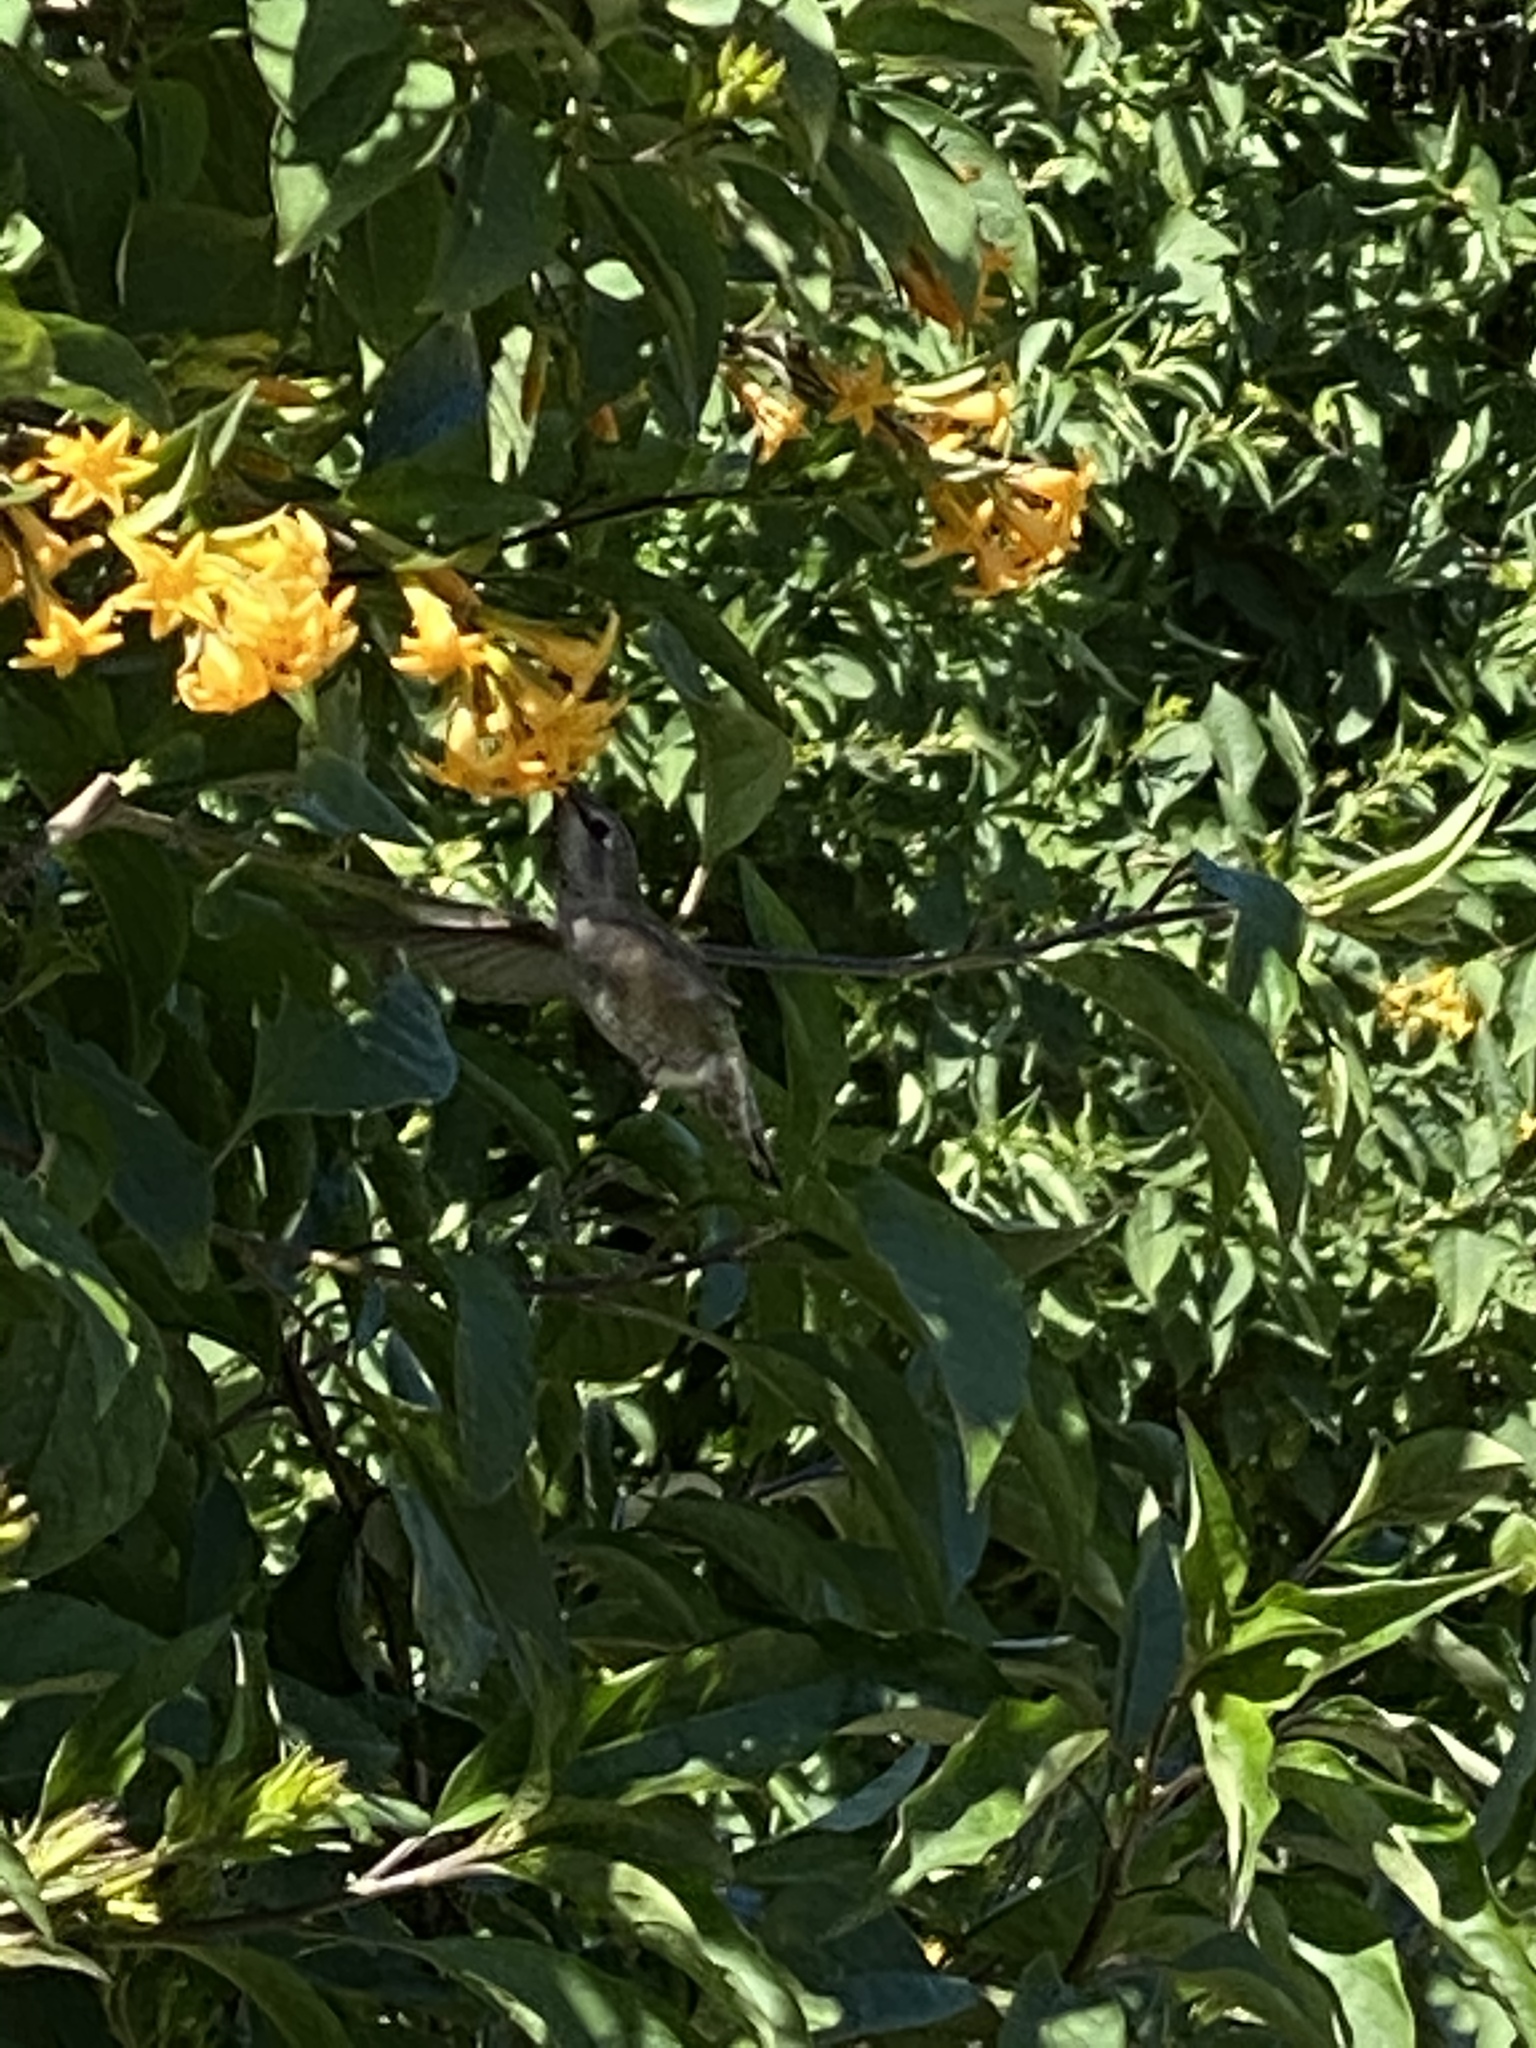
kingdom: Animalia
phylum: Chordata
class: Aves
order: Apodiformes
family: Trochilidae
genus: Calypte
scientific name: Calypte anna
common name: Anna's hummingbird
